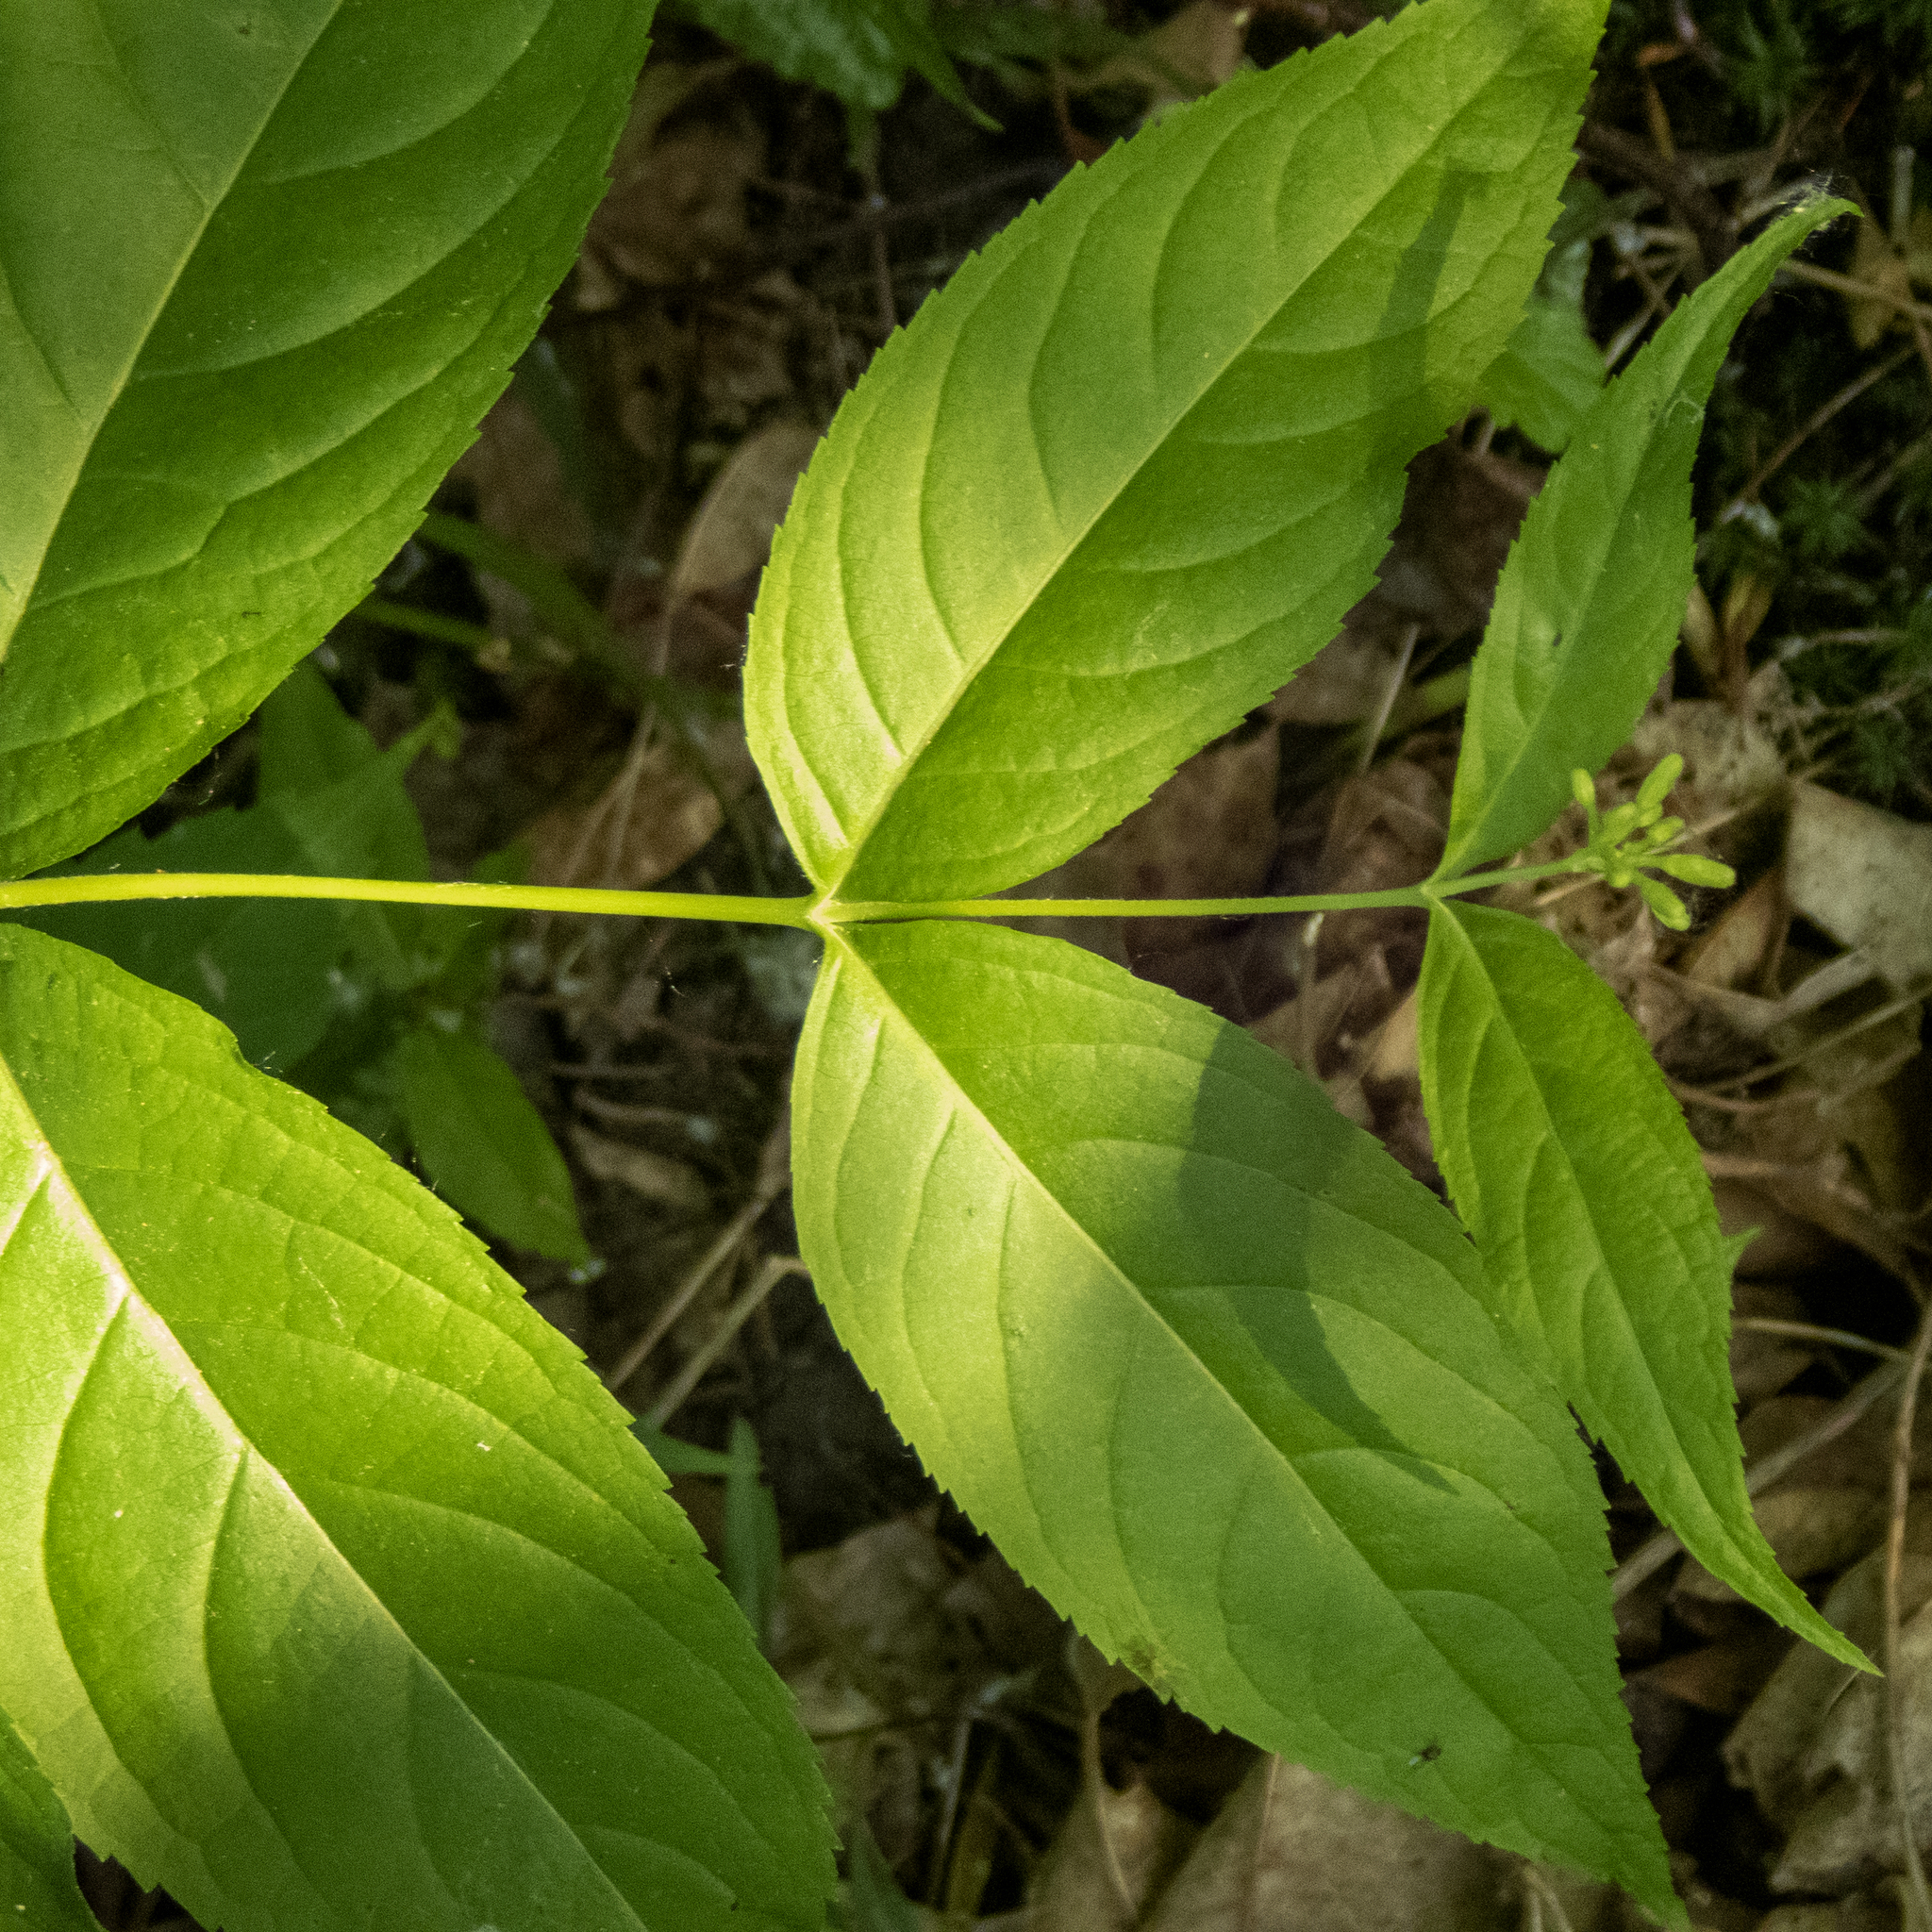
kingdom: Plantae
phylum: Tracheophyta
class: Magnoliopsida
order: Dipsacales
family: Caprifoliaceae
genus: Diervilla
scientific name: Diervilla lonicera
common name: Bush-honeysuckle
